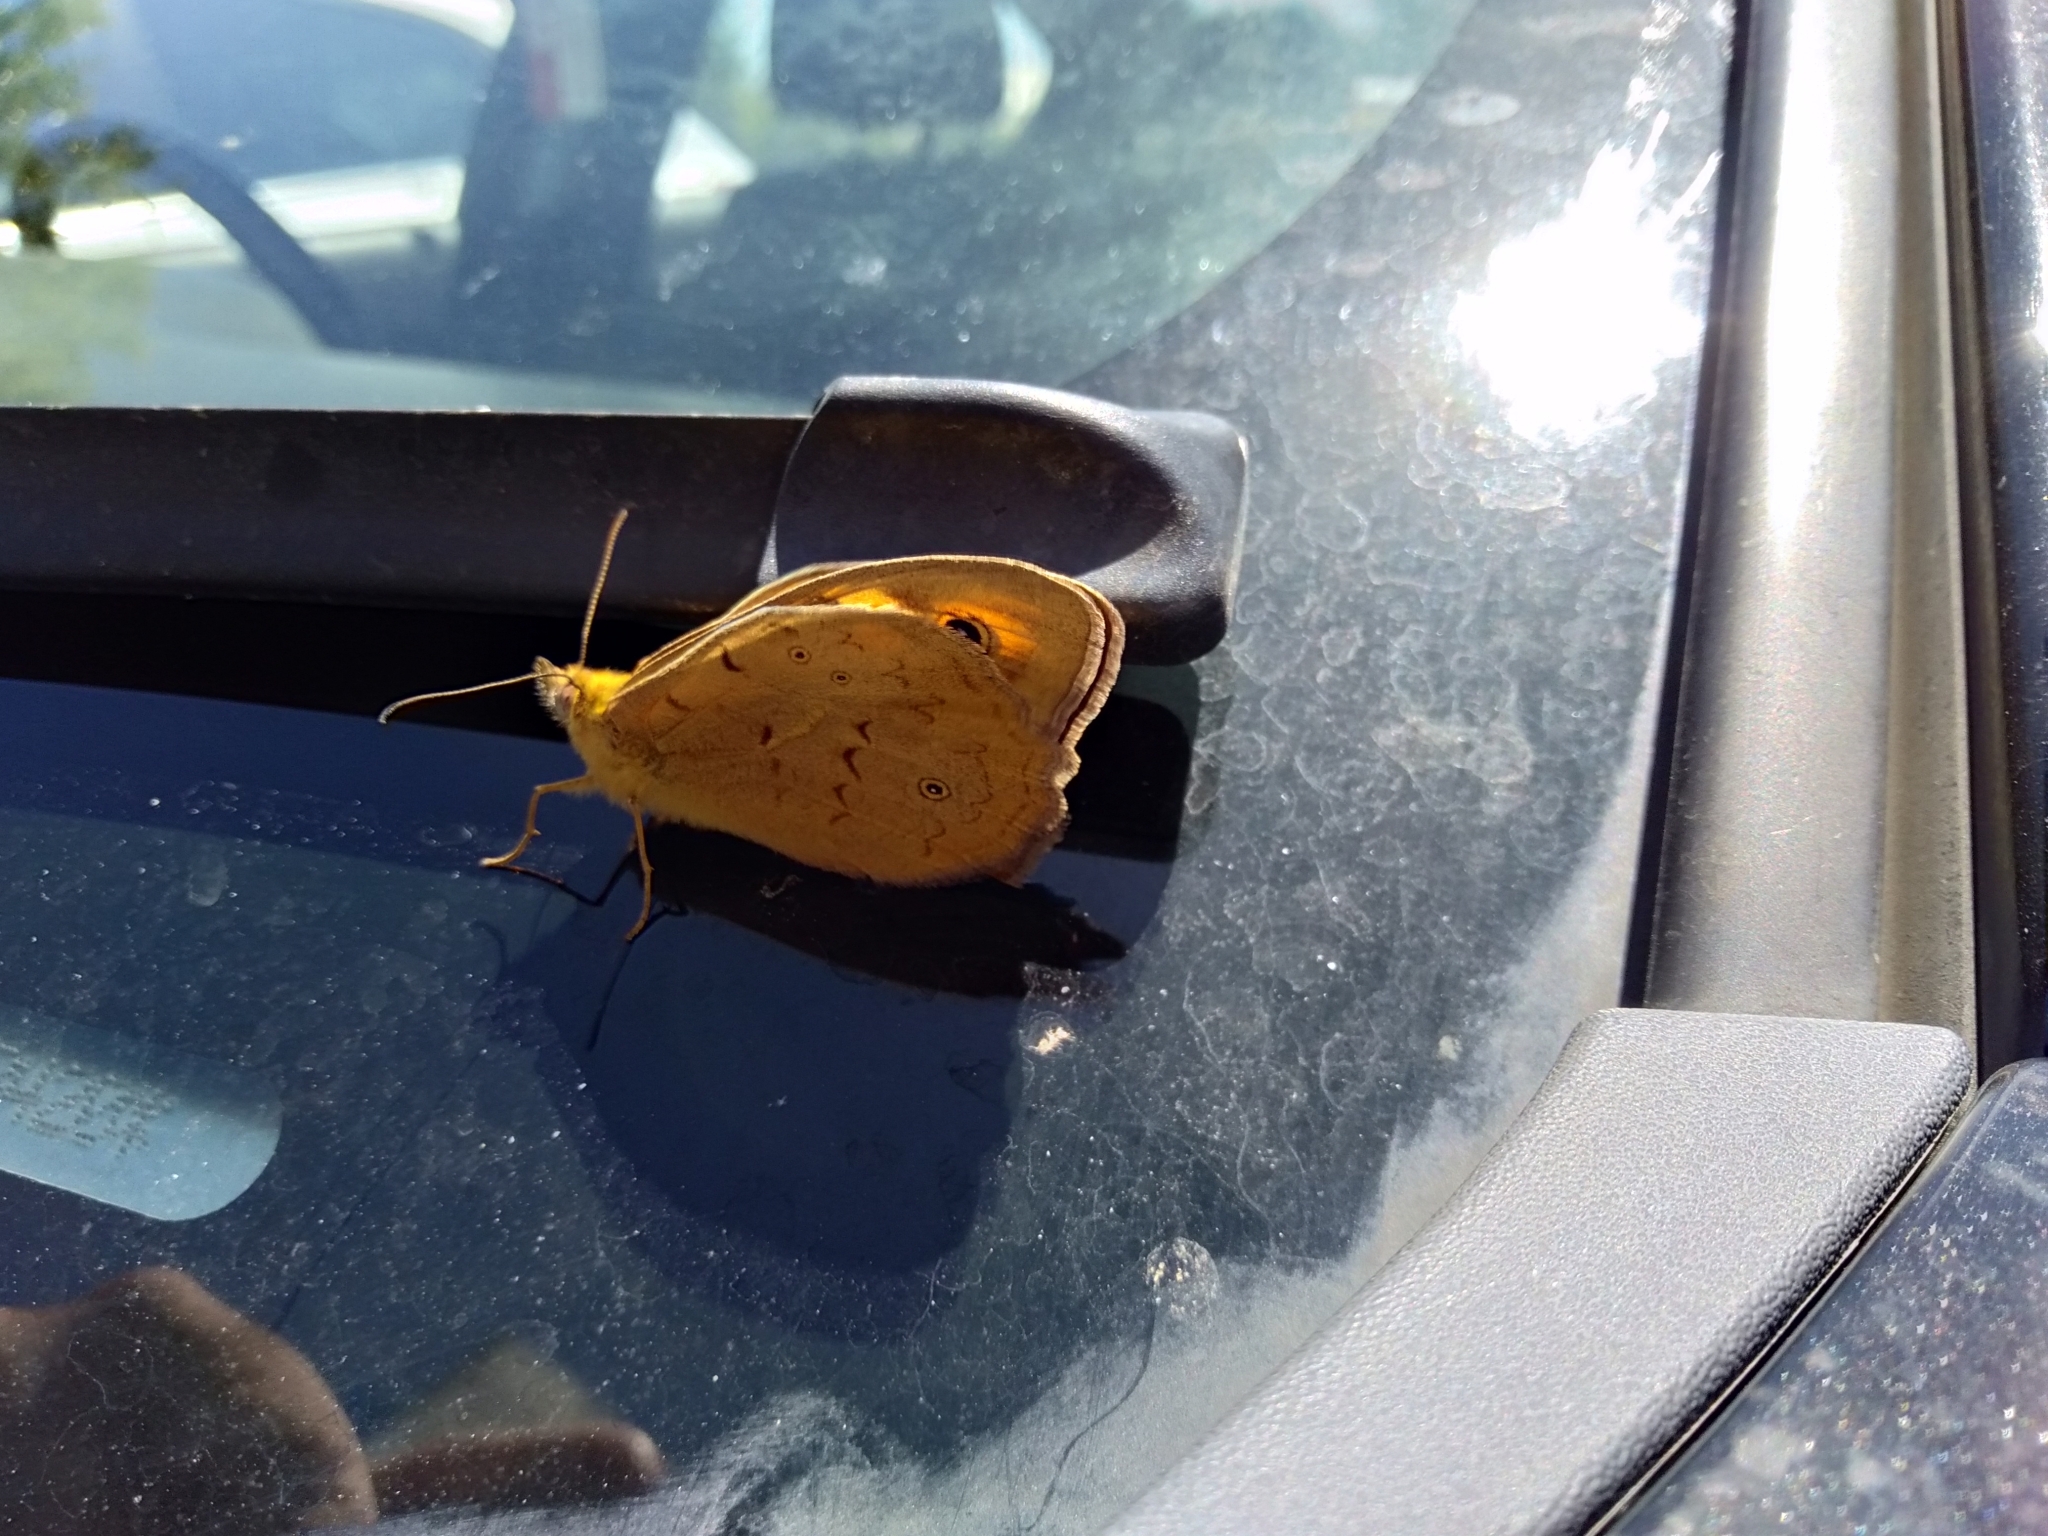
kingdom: Animalia
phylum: Arthropoda
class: Insecta
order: Lepidoptera
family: Nymphalidae
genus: Heteronympha
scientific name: Heteronympha merope
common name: Common brown
